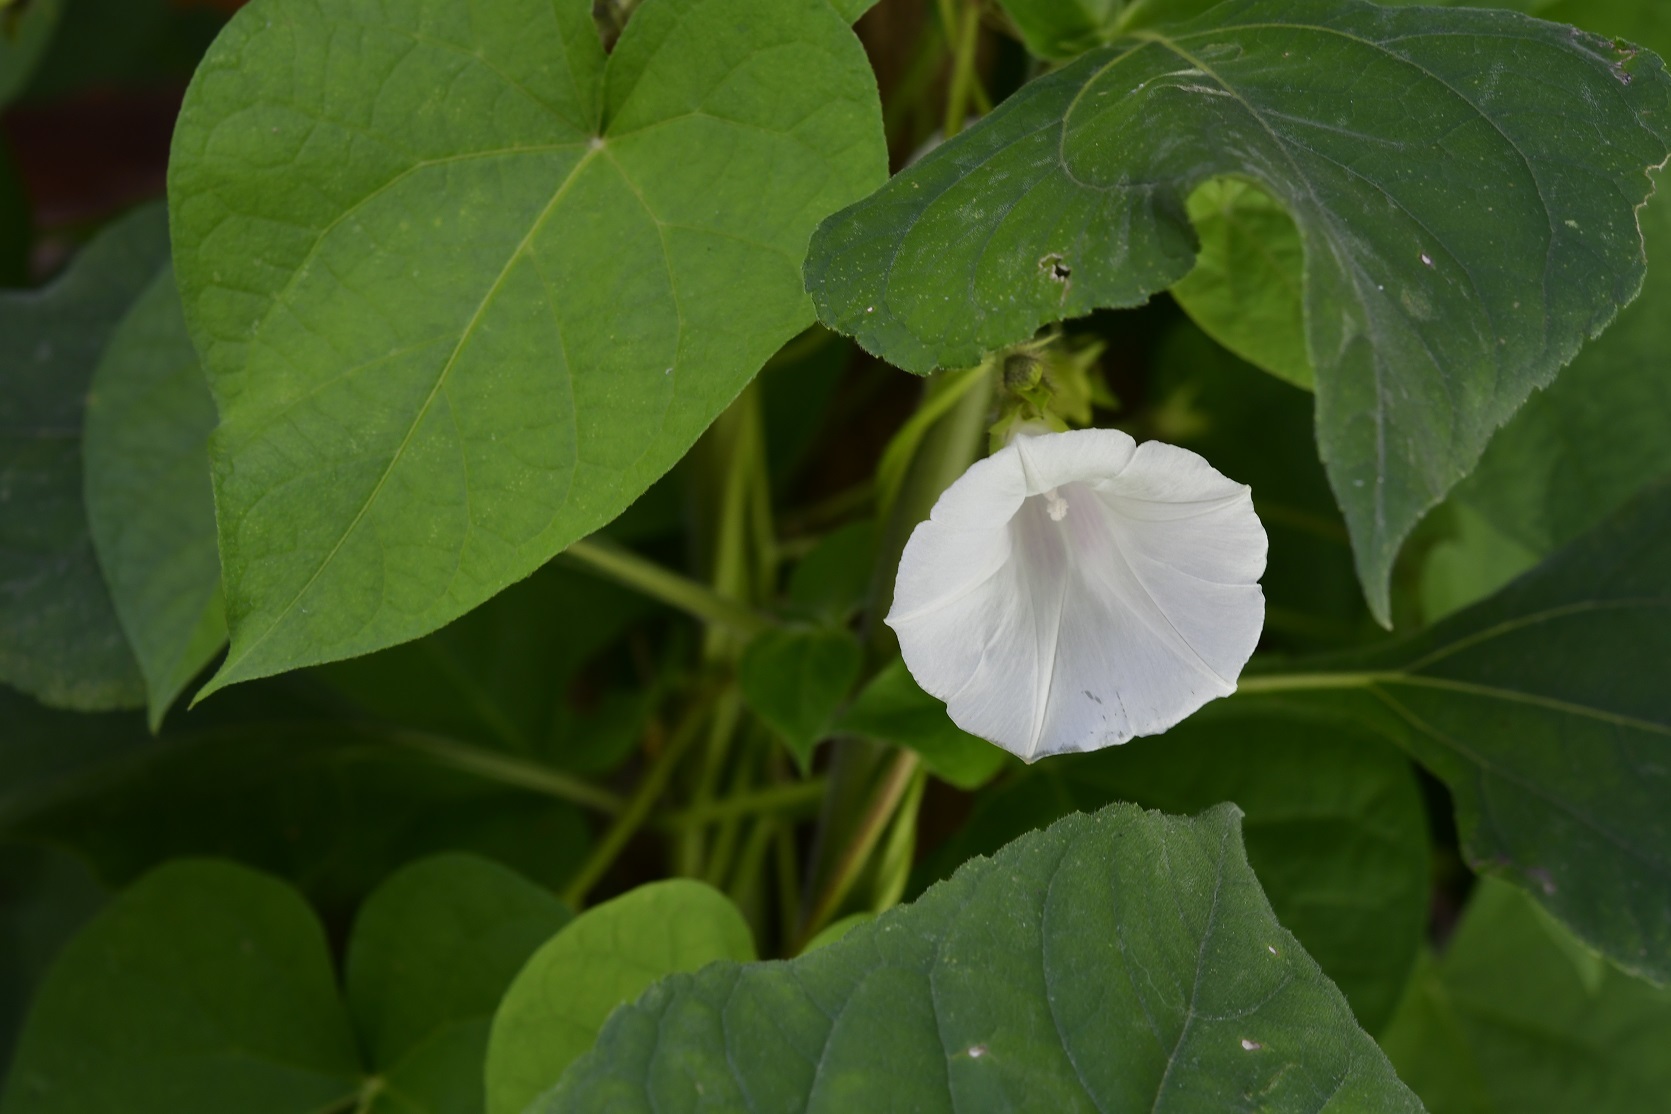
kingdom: Plantae
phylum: Tracheophyta
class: Magnoliopsida
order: Solanales
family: Convolvulaceae
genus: Ipomoea
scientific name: Ipomoea purpurea
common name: Common morning-glory
